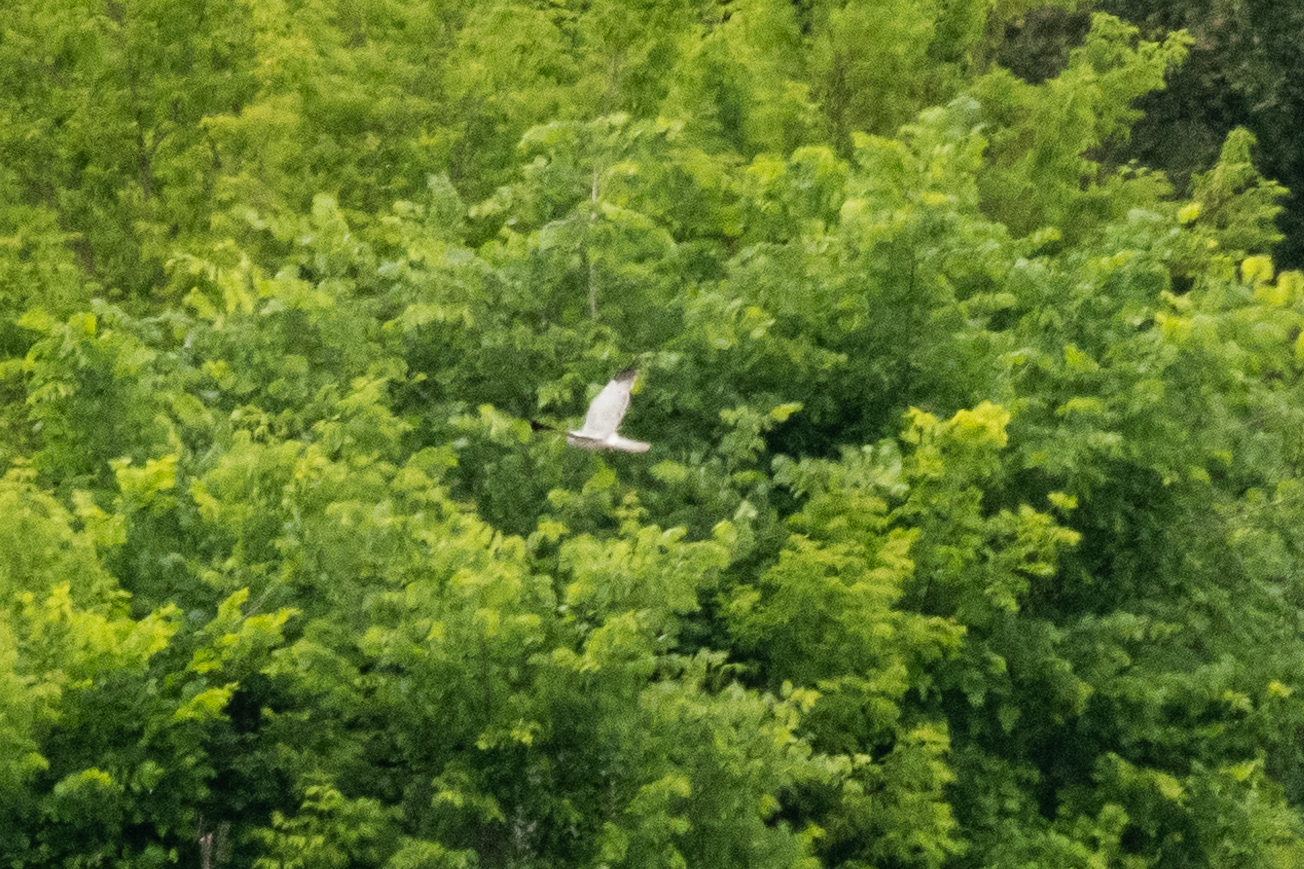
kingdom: Animalia
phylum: Chordata
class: Aves
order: Accipitriformes
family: Accipitridae
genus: Circus
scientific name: Circus cyaneus
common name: Hen harrier
